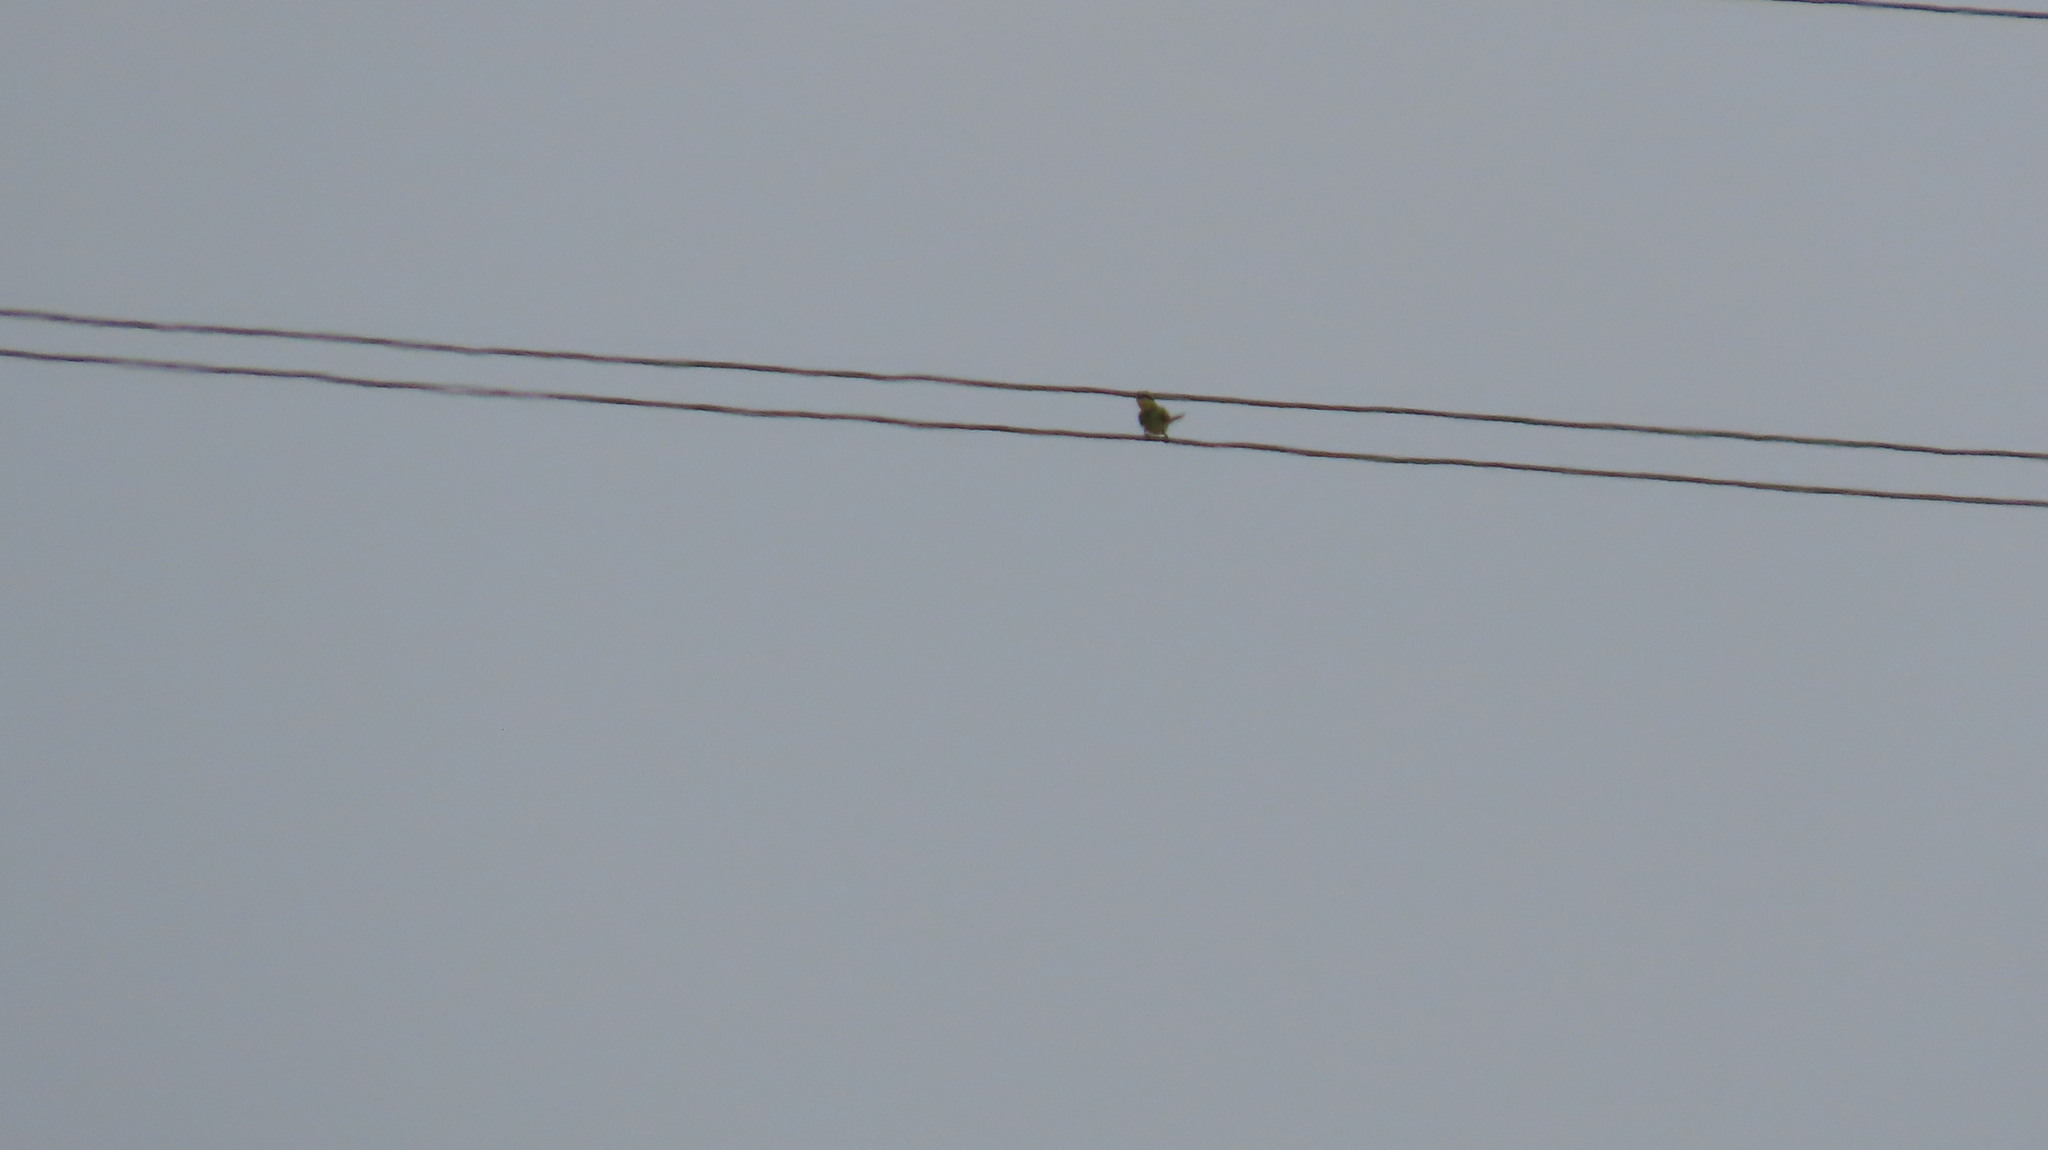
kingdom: Animalia
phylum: Chordata
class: Aves
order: Coraciiformes
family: Meropidae
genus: Merops
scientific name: Merops orientalis
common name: Green bee-eater
